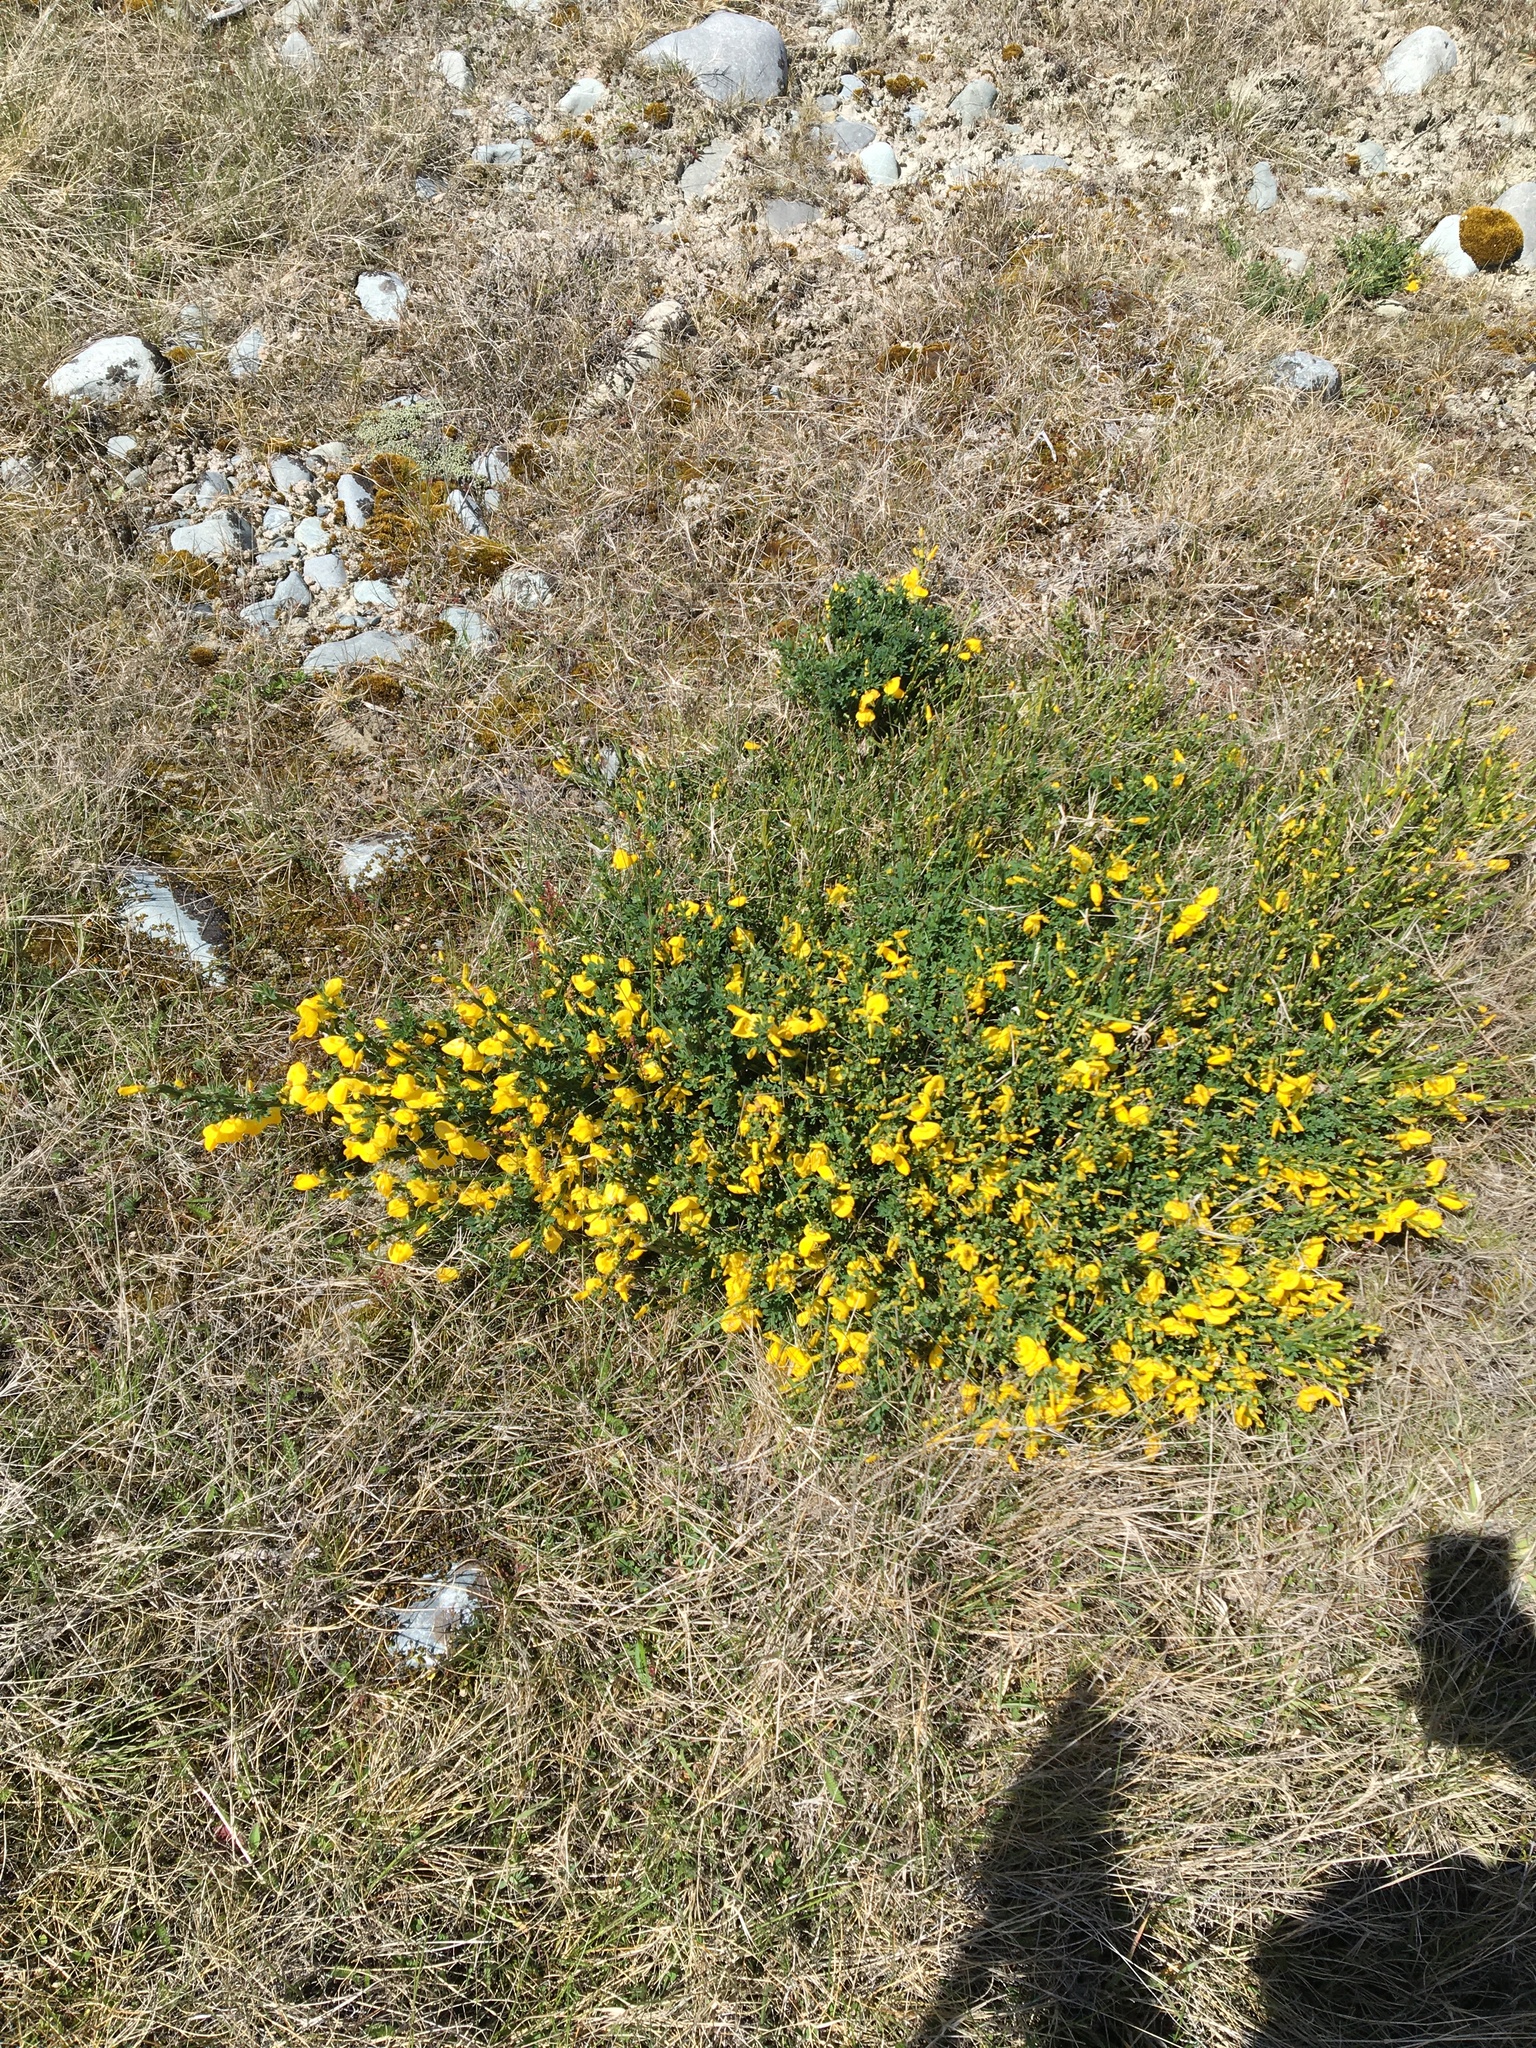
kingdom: Plantae
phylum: Tracheophyta
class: Magnoliopsida
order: Fabales
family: Fabaceae
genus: Cytisus
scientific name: Cytisus scoparius
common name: Scotch broom
